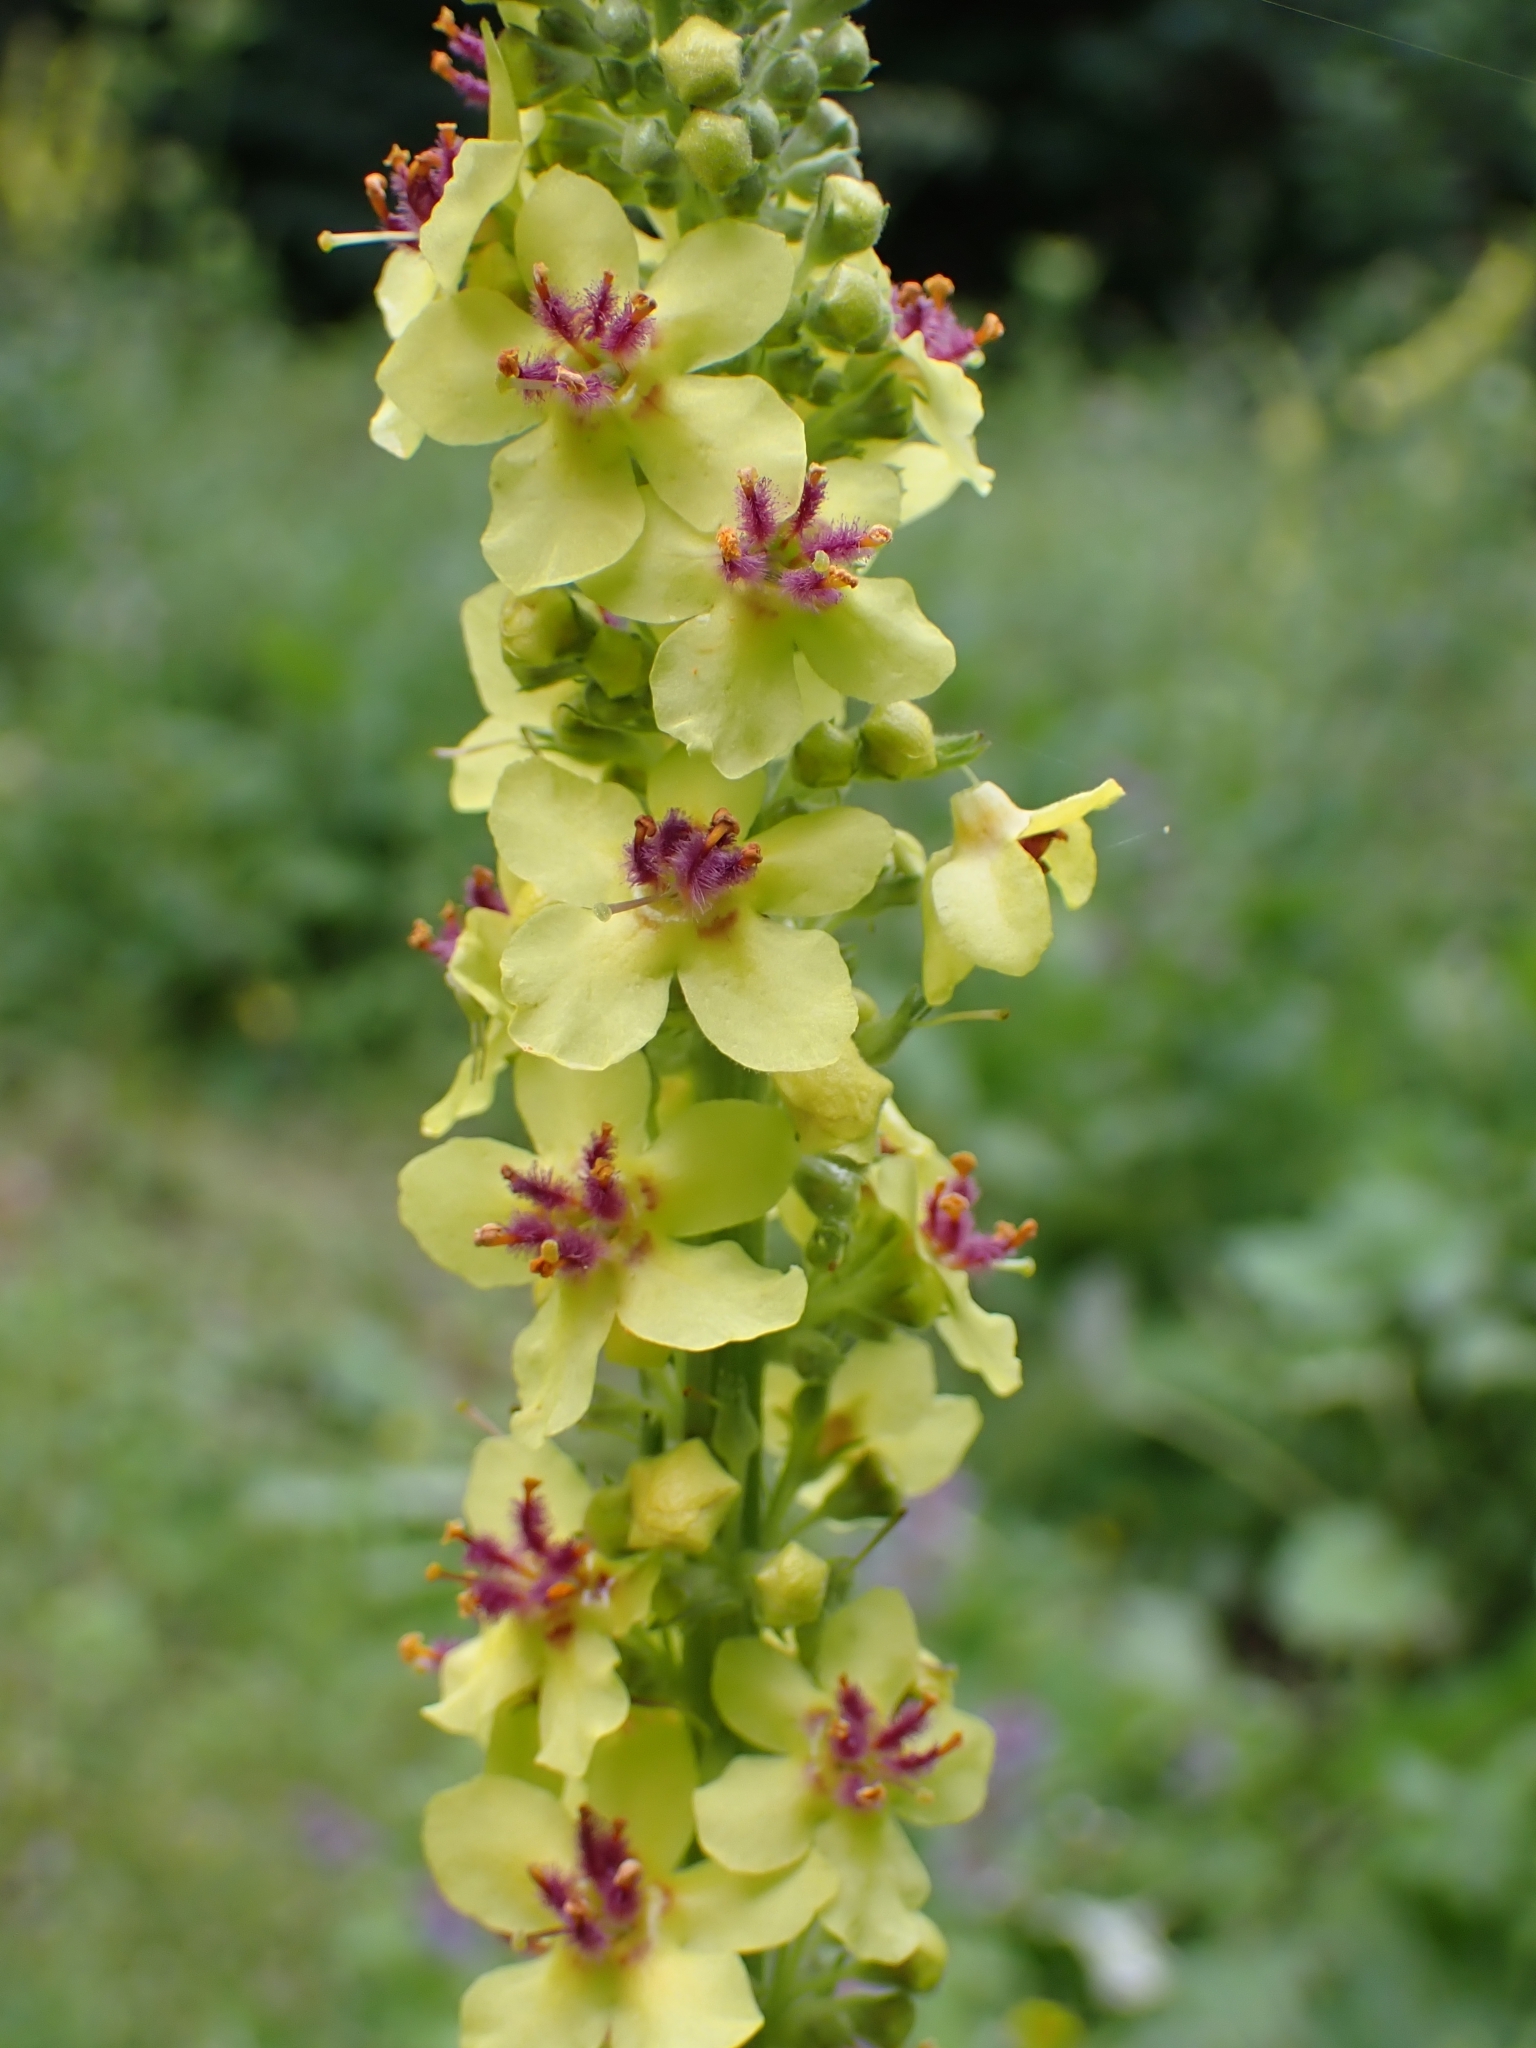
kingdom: Plantae
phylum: Tracheophyta
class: Magnoliopsida
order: Lamiales
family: Scrophulariaceae
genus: Verbascum
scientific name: Verbascum nigrum
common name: Dark mullein
